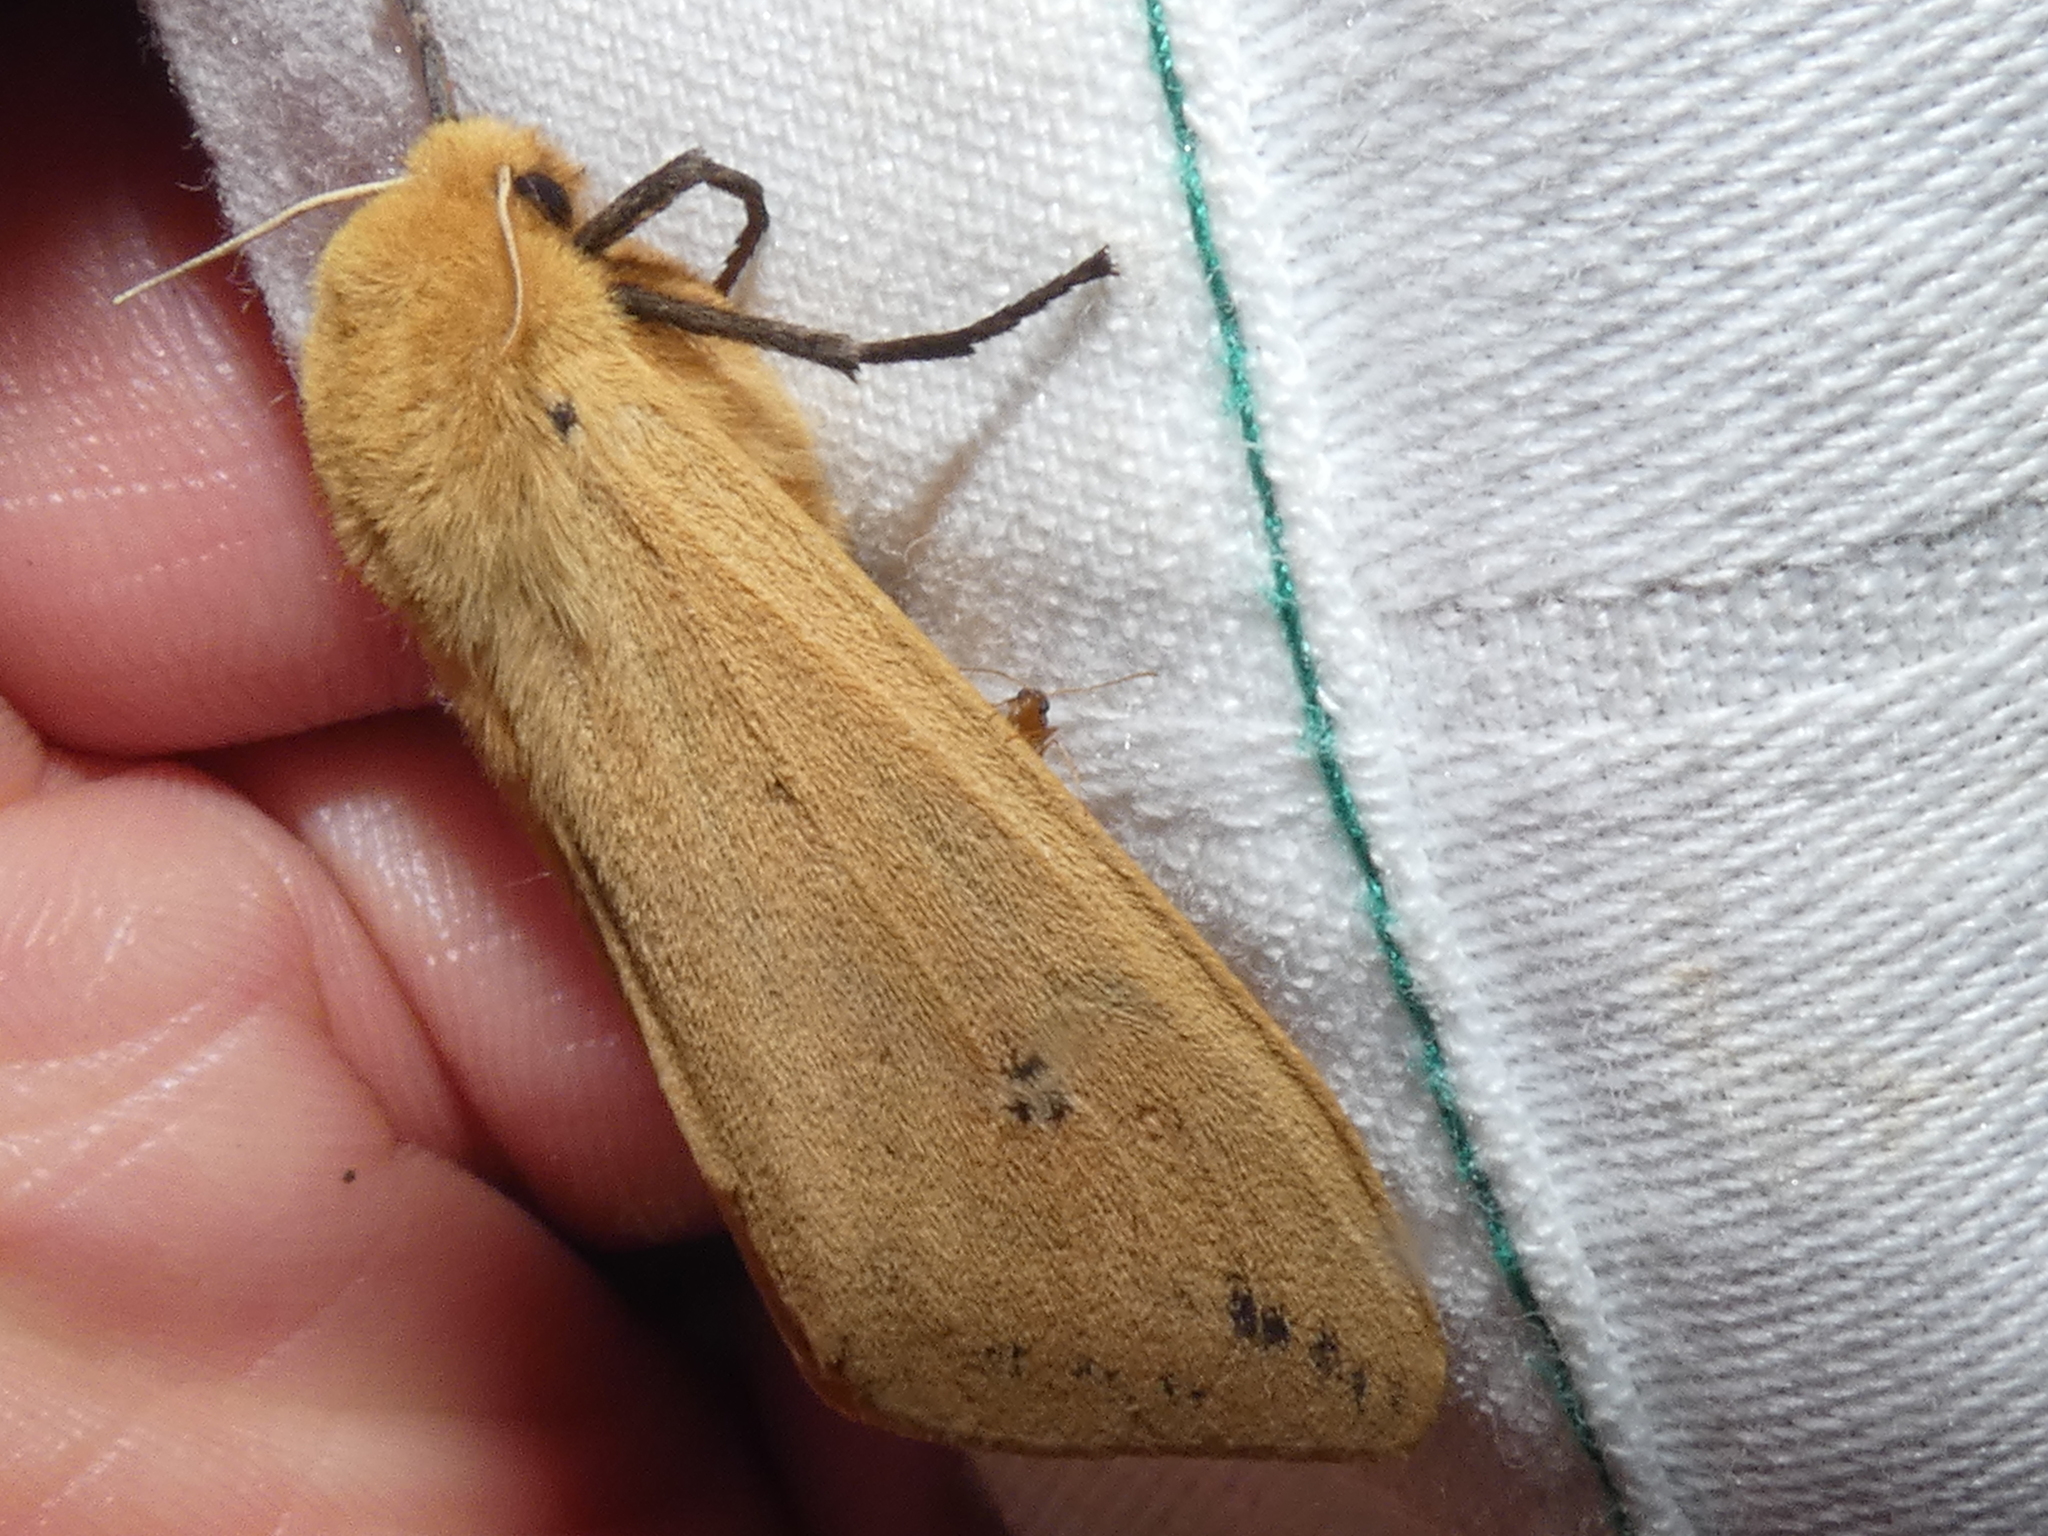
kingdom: Animalia
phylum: Arthropoda
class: Insecta
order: Lepidoptera
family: Erebidae
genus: Pyrrharctia
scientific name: Pyrrharctia isabella
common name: Isabella tiger moth
